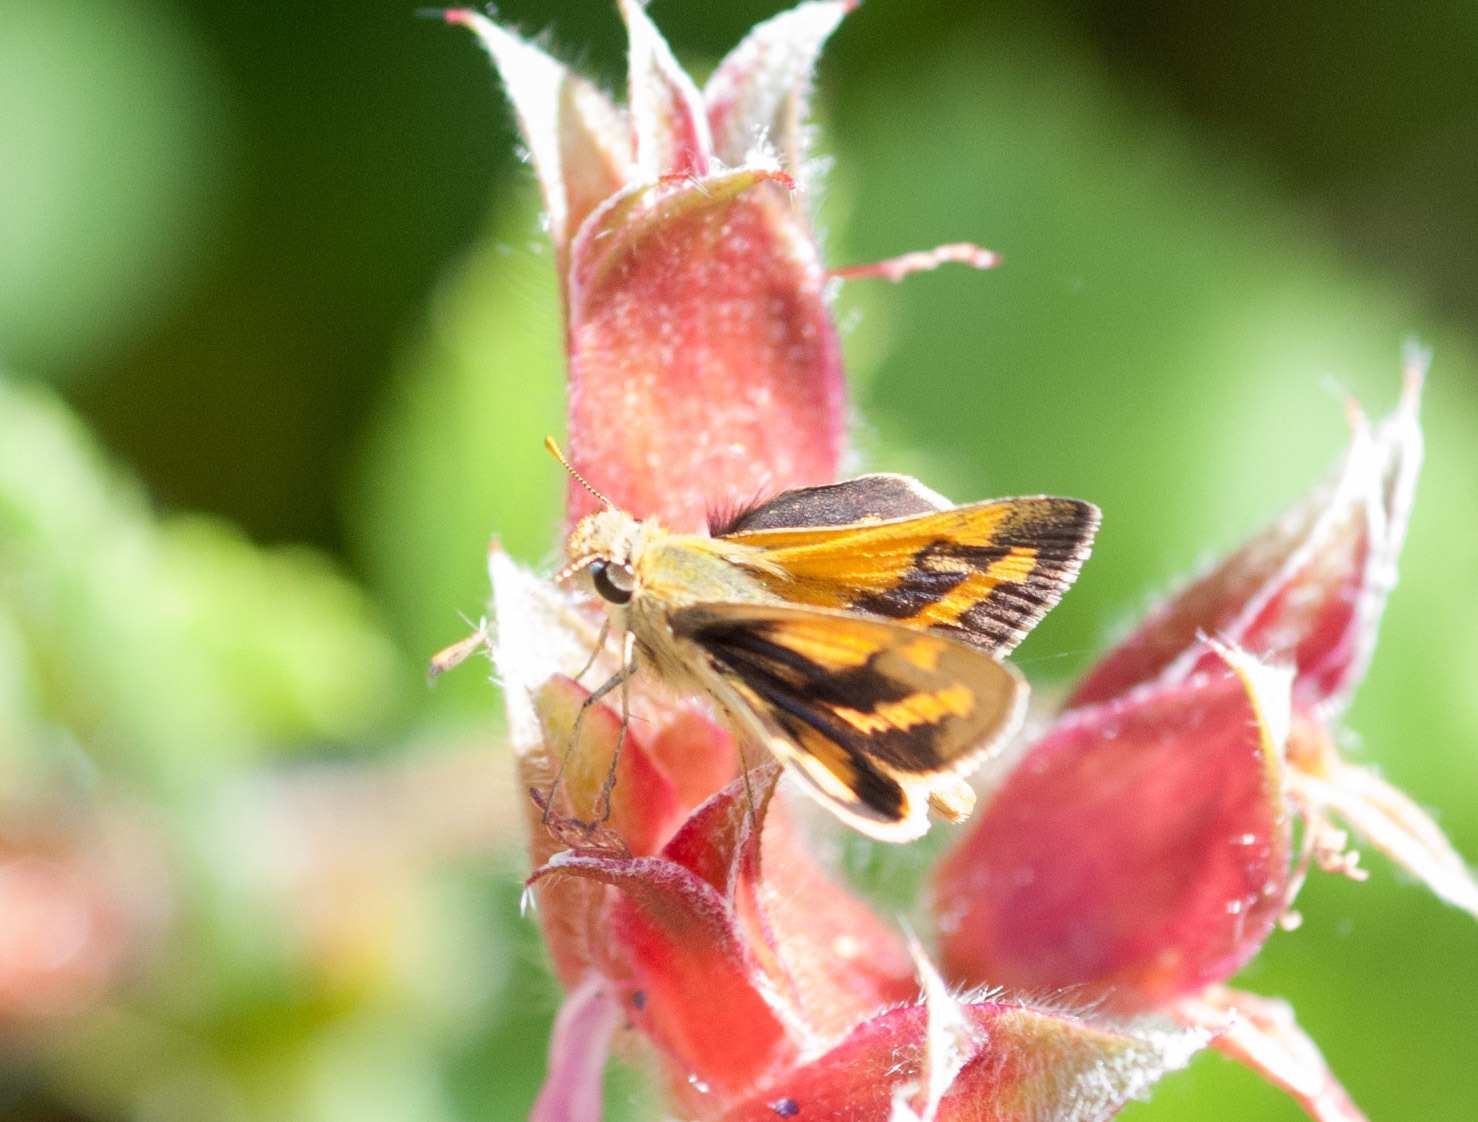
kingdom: Animalia
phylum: Arthropoda
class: Insecta
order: Lepidoptera
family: Hesperiidae
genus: Ocybadistes
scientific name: Ocybadistes walkeri
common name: Yellow-banded dart
